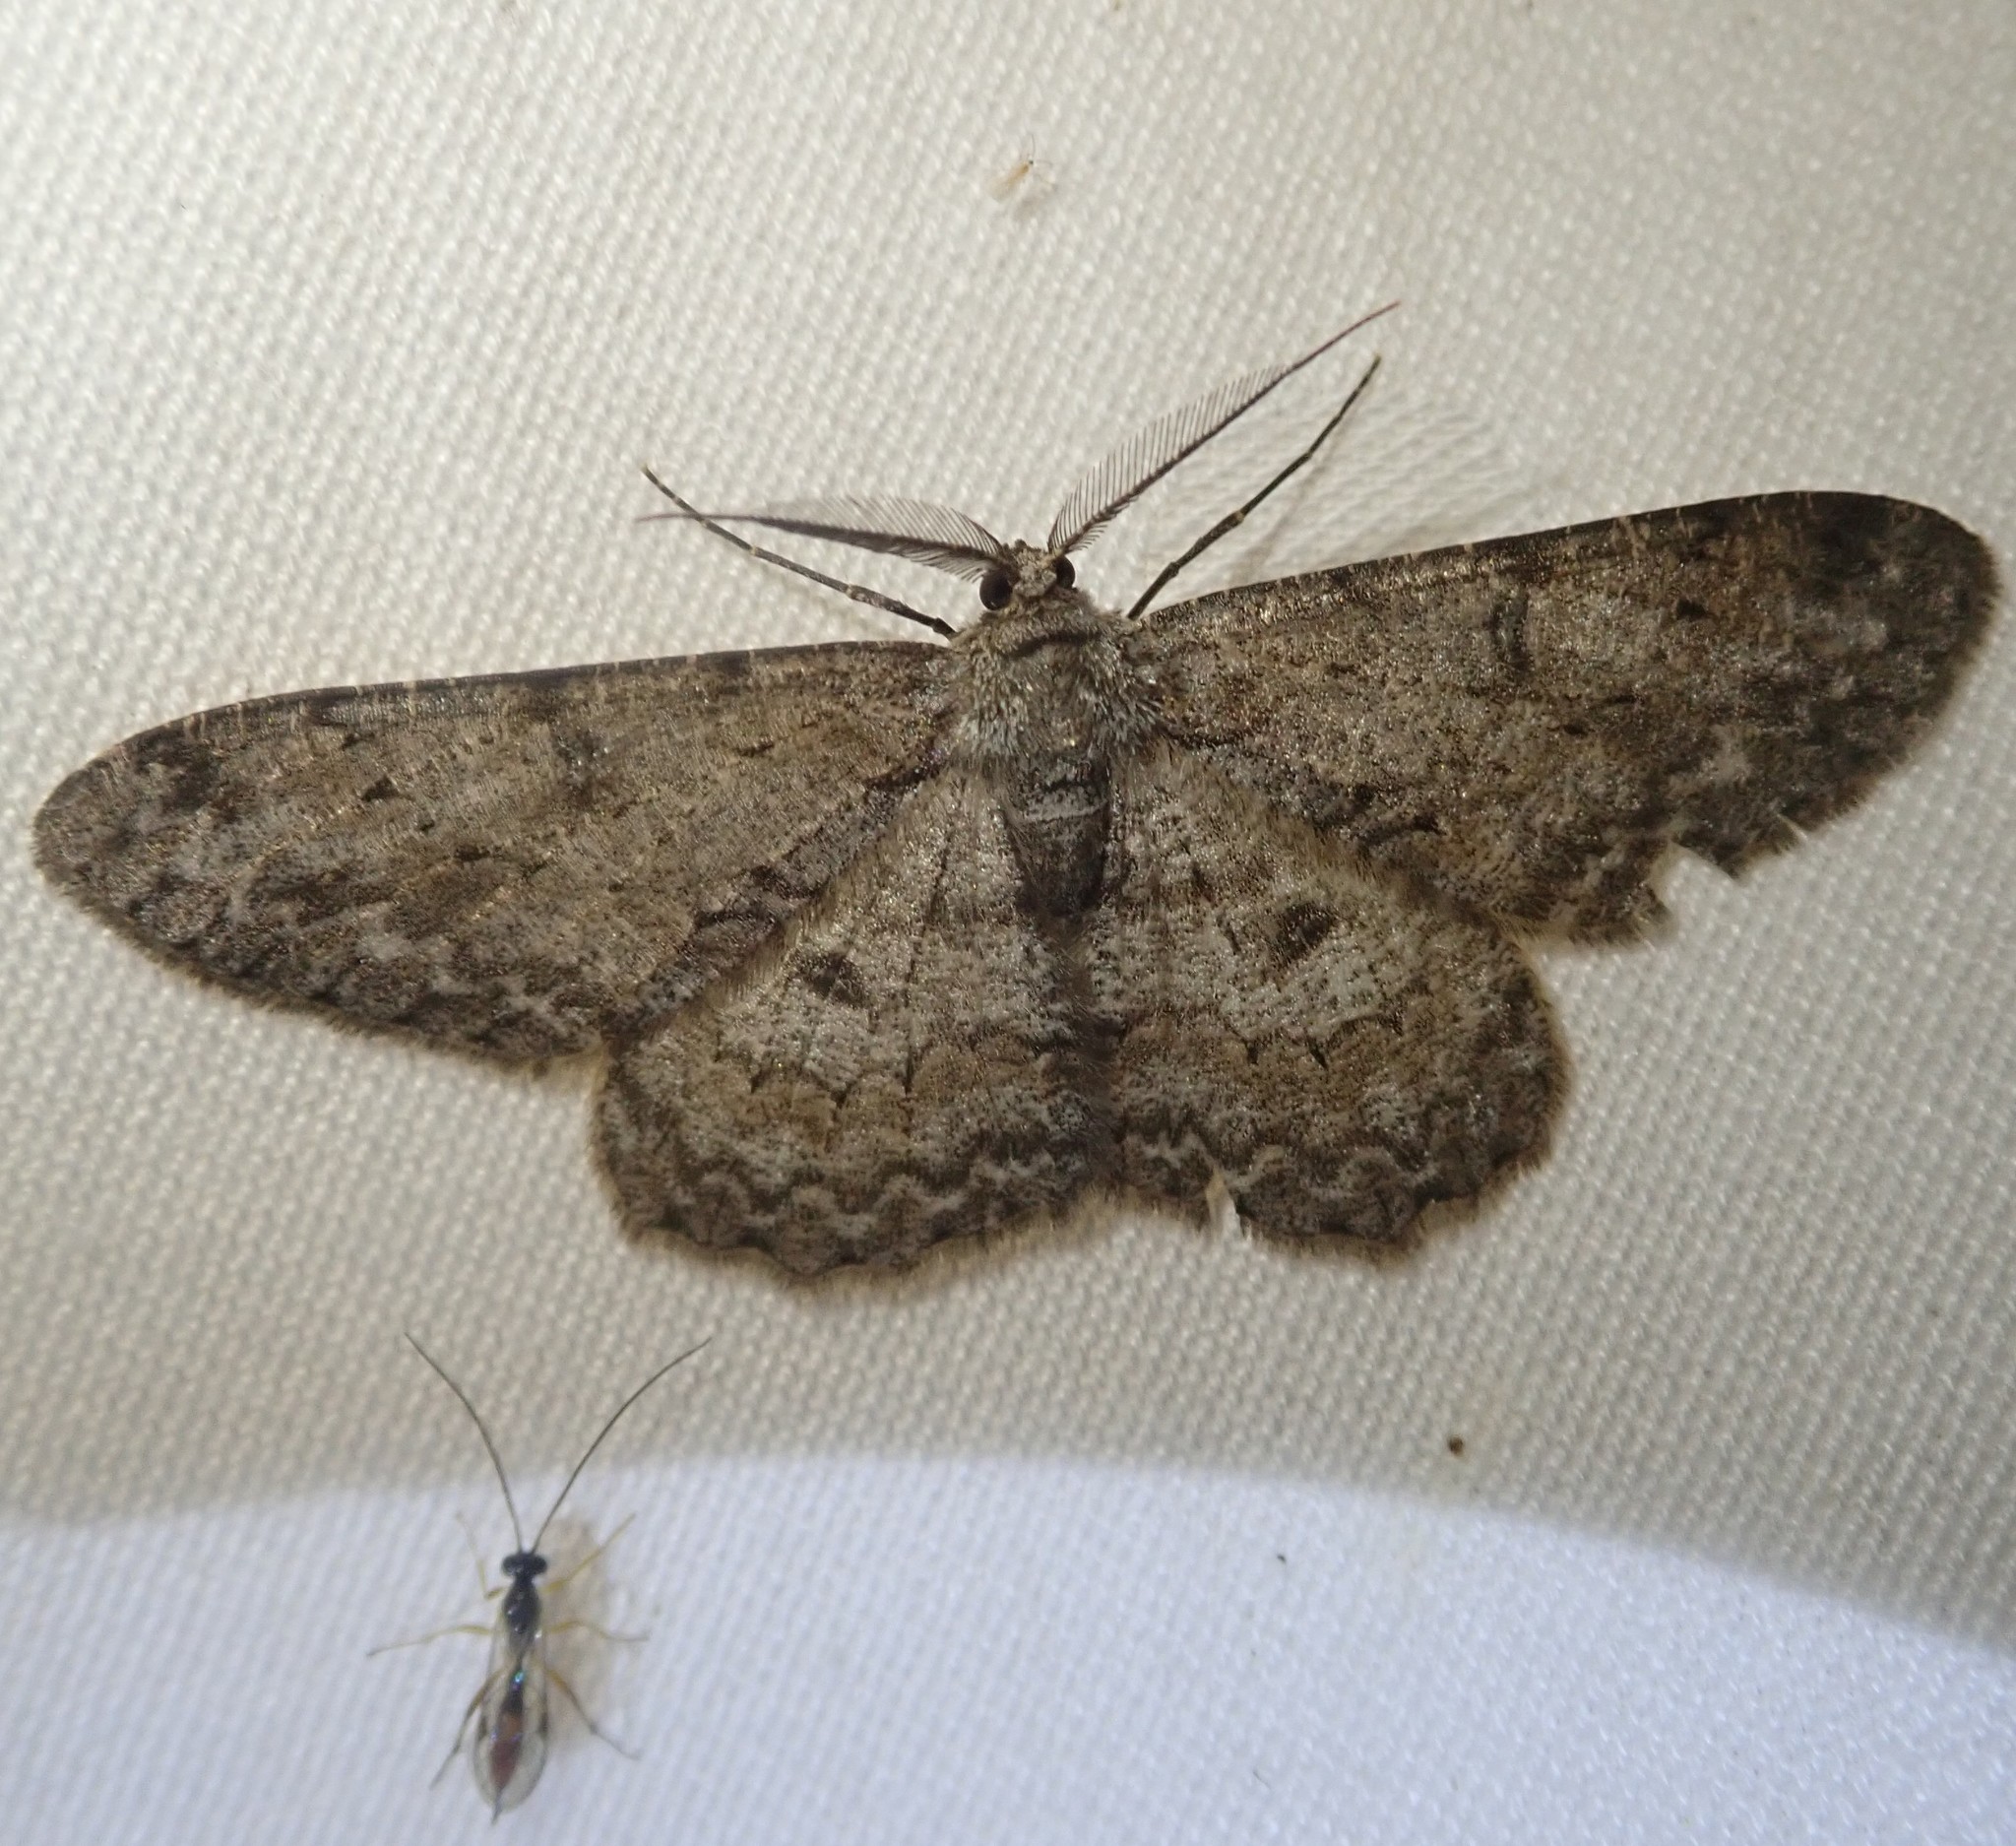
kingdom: Animalia
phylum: Arthropoda
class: Insecta
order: Lepidoptera
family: Geometridae
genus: Hypomecis
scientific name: Hypomecis punctinalis
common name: Pale oak beauty
